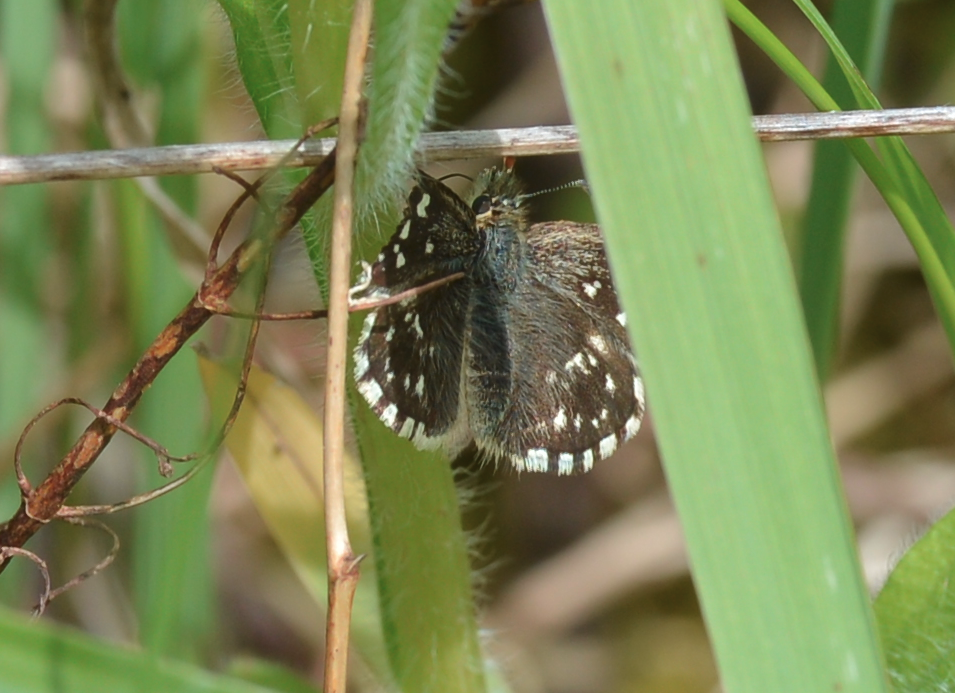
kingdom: Animalia
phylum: Arthropoda
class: Insecta
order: Lepidoptera
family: Hesperiidae
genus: Pyrgus
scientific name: Pyrgus malvae
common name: Grizzled skipper
